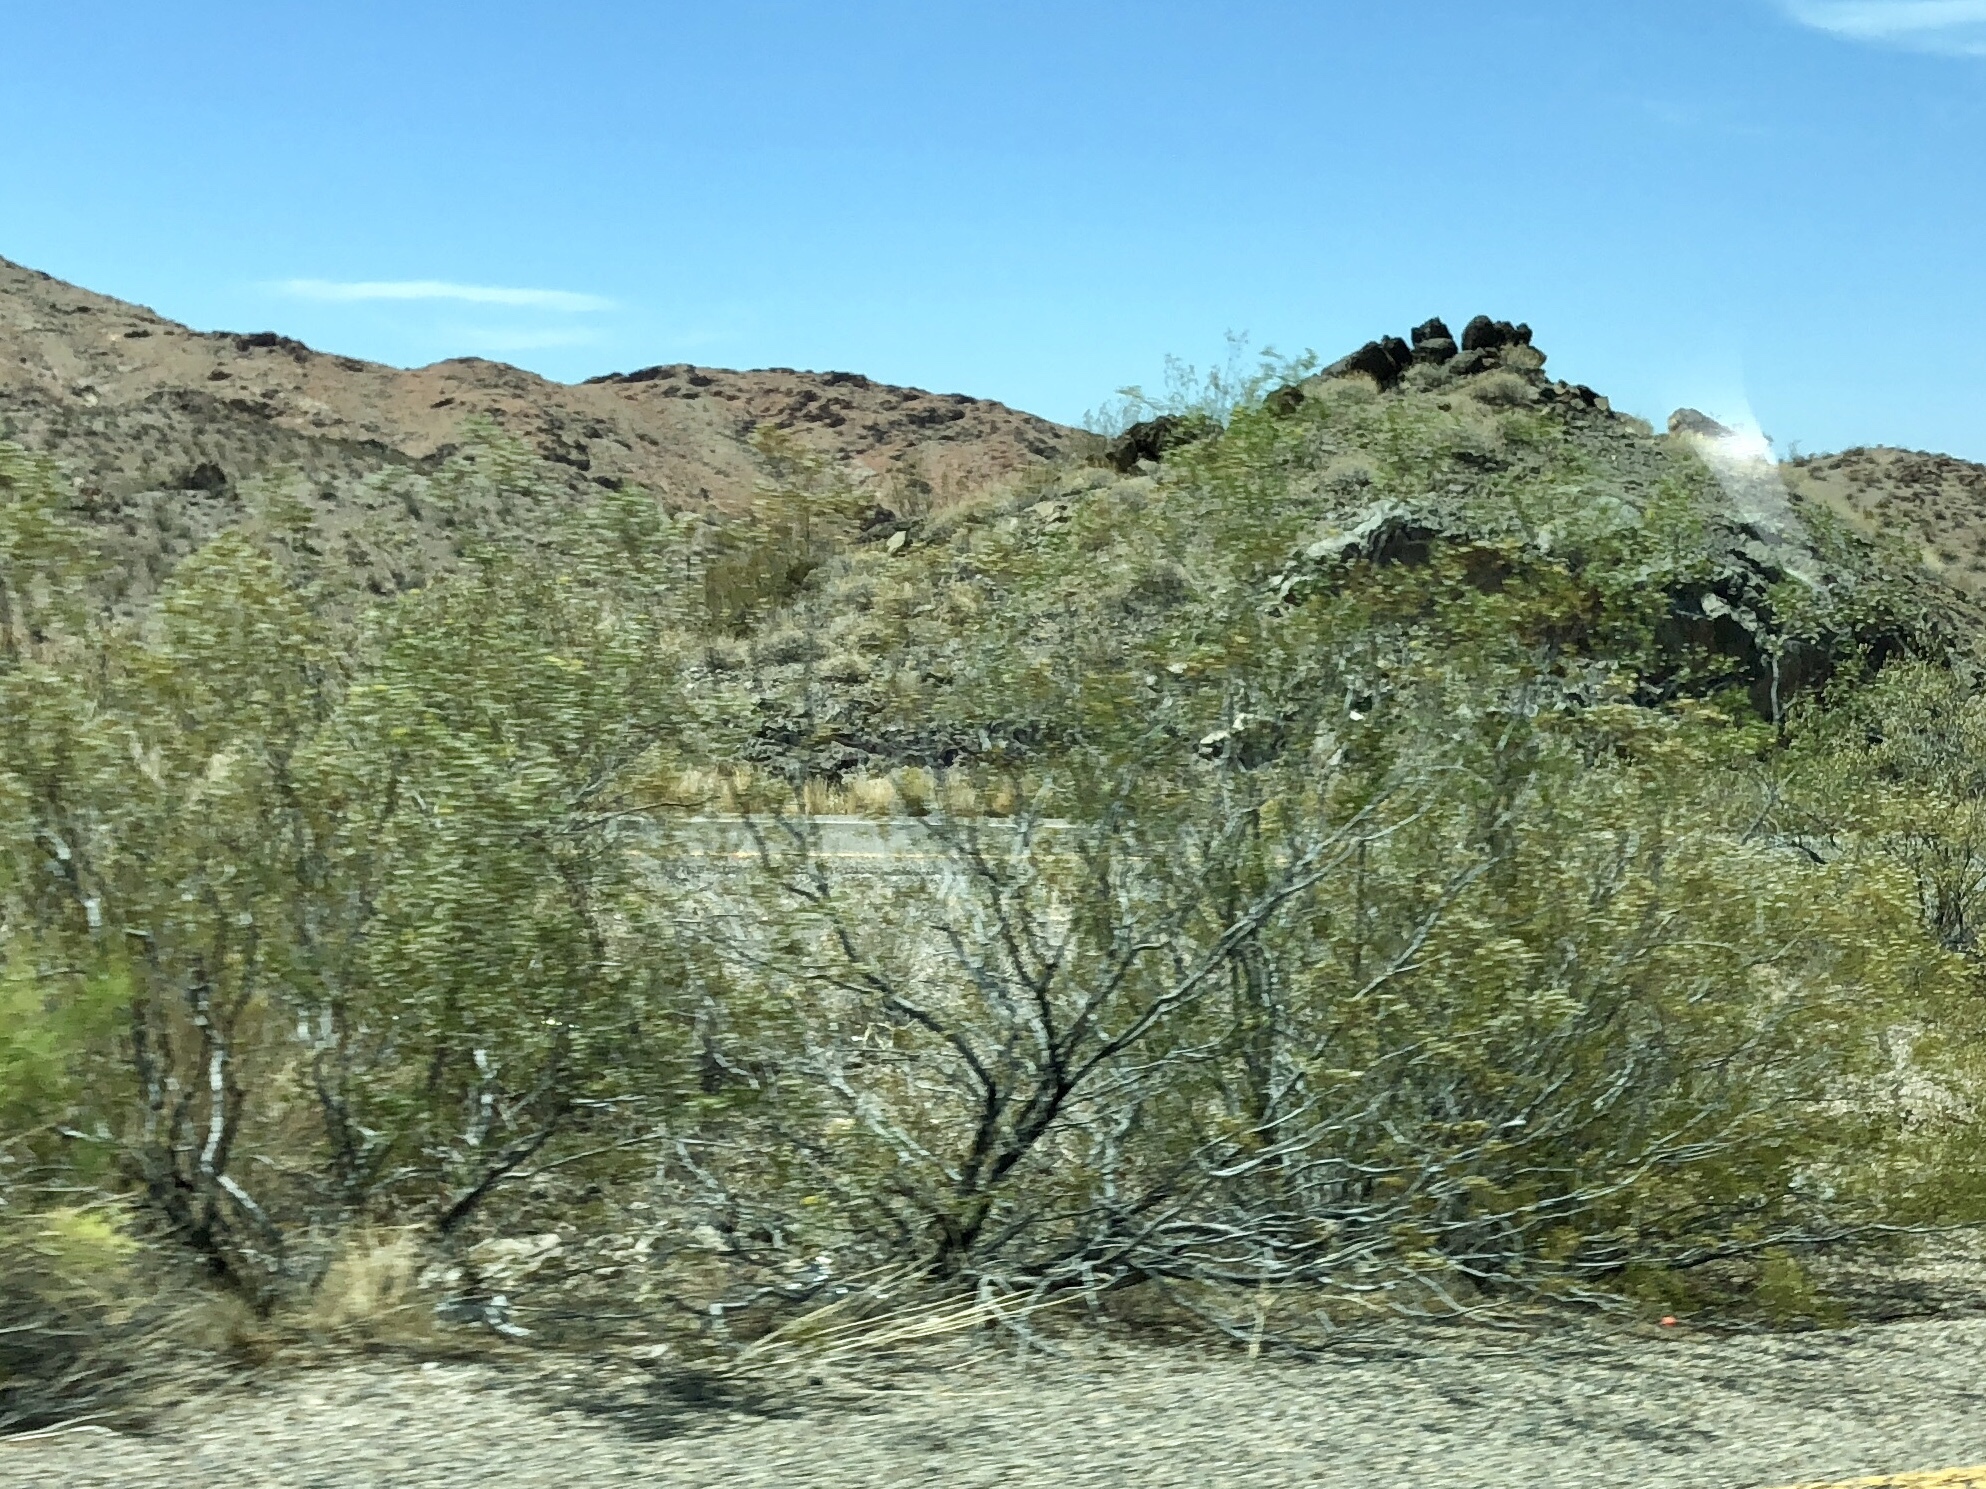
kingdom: Plantae
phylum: Tracheophyta
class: Magnoliopsida
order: Zygophyllales
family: Zygophyllaceae
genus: Larrea
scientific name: Larrea tridentata
